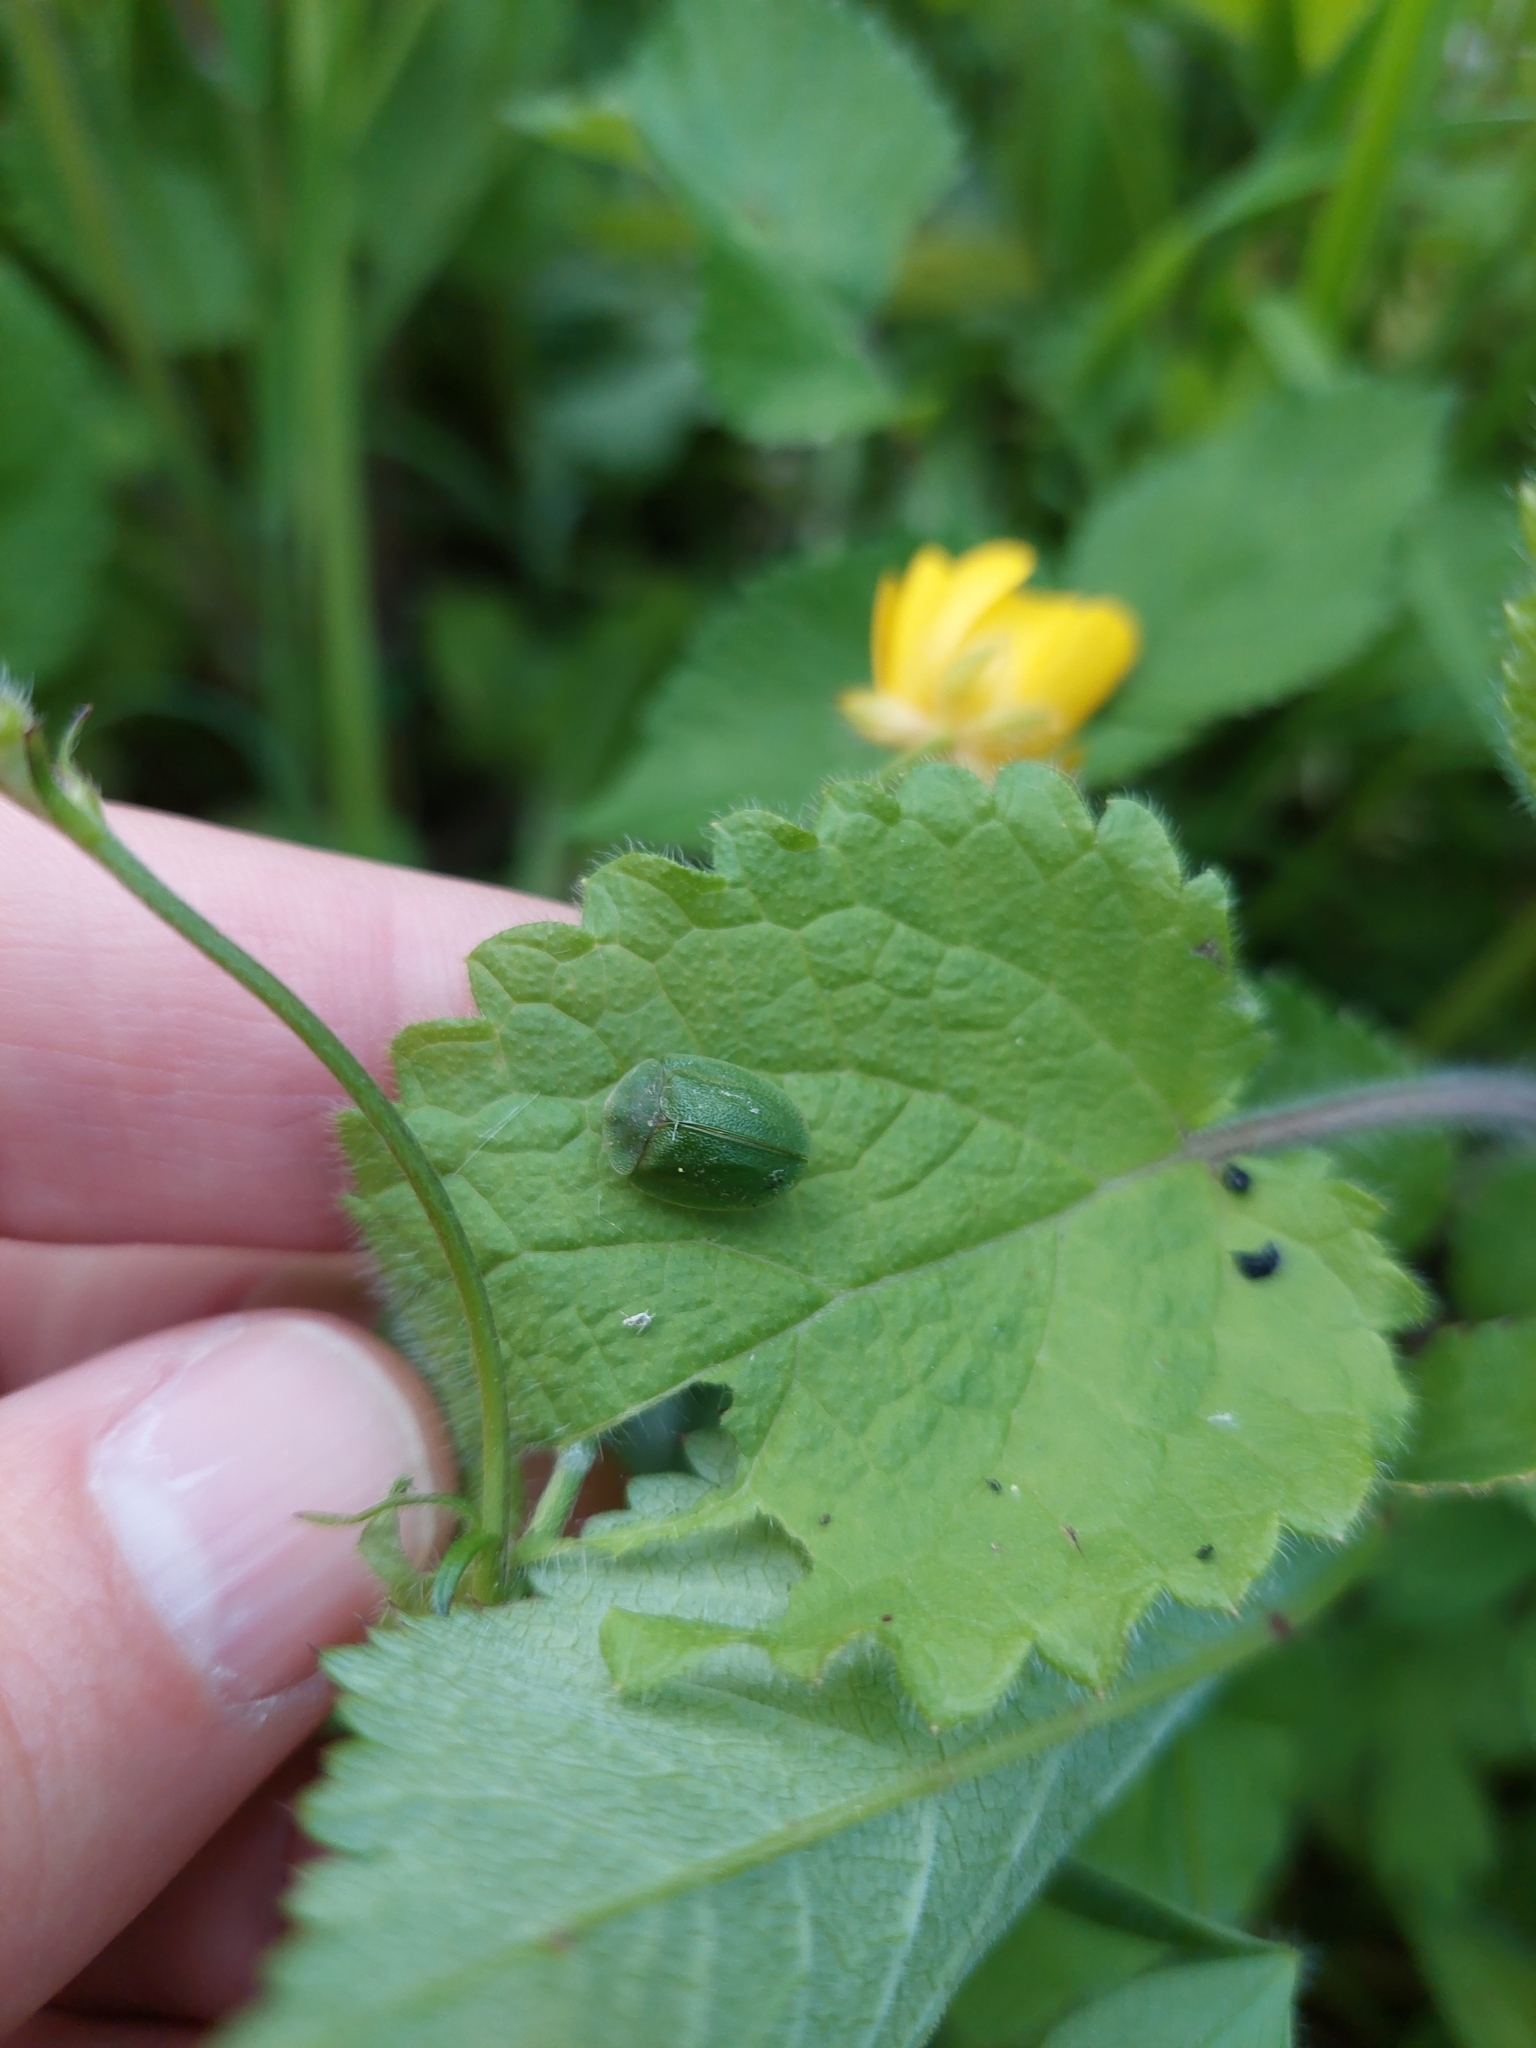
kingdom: Animalia
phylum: Arthropoda
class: Insecta
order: Coleoptera
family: Chrysomelidae
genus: Cassida
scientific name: Cassida viridis
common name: Green tortoise beetle
